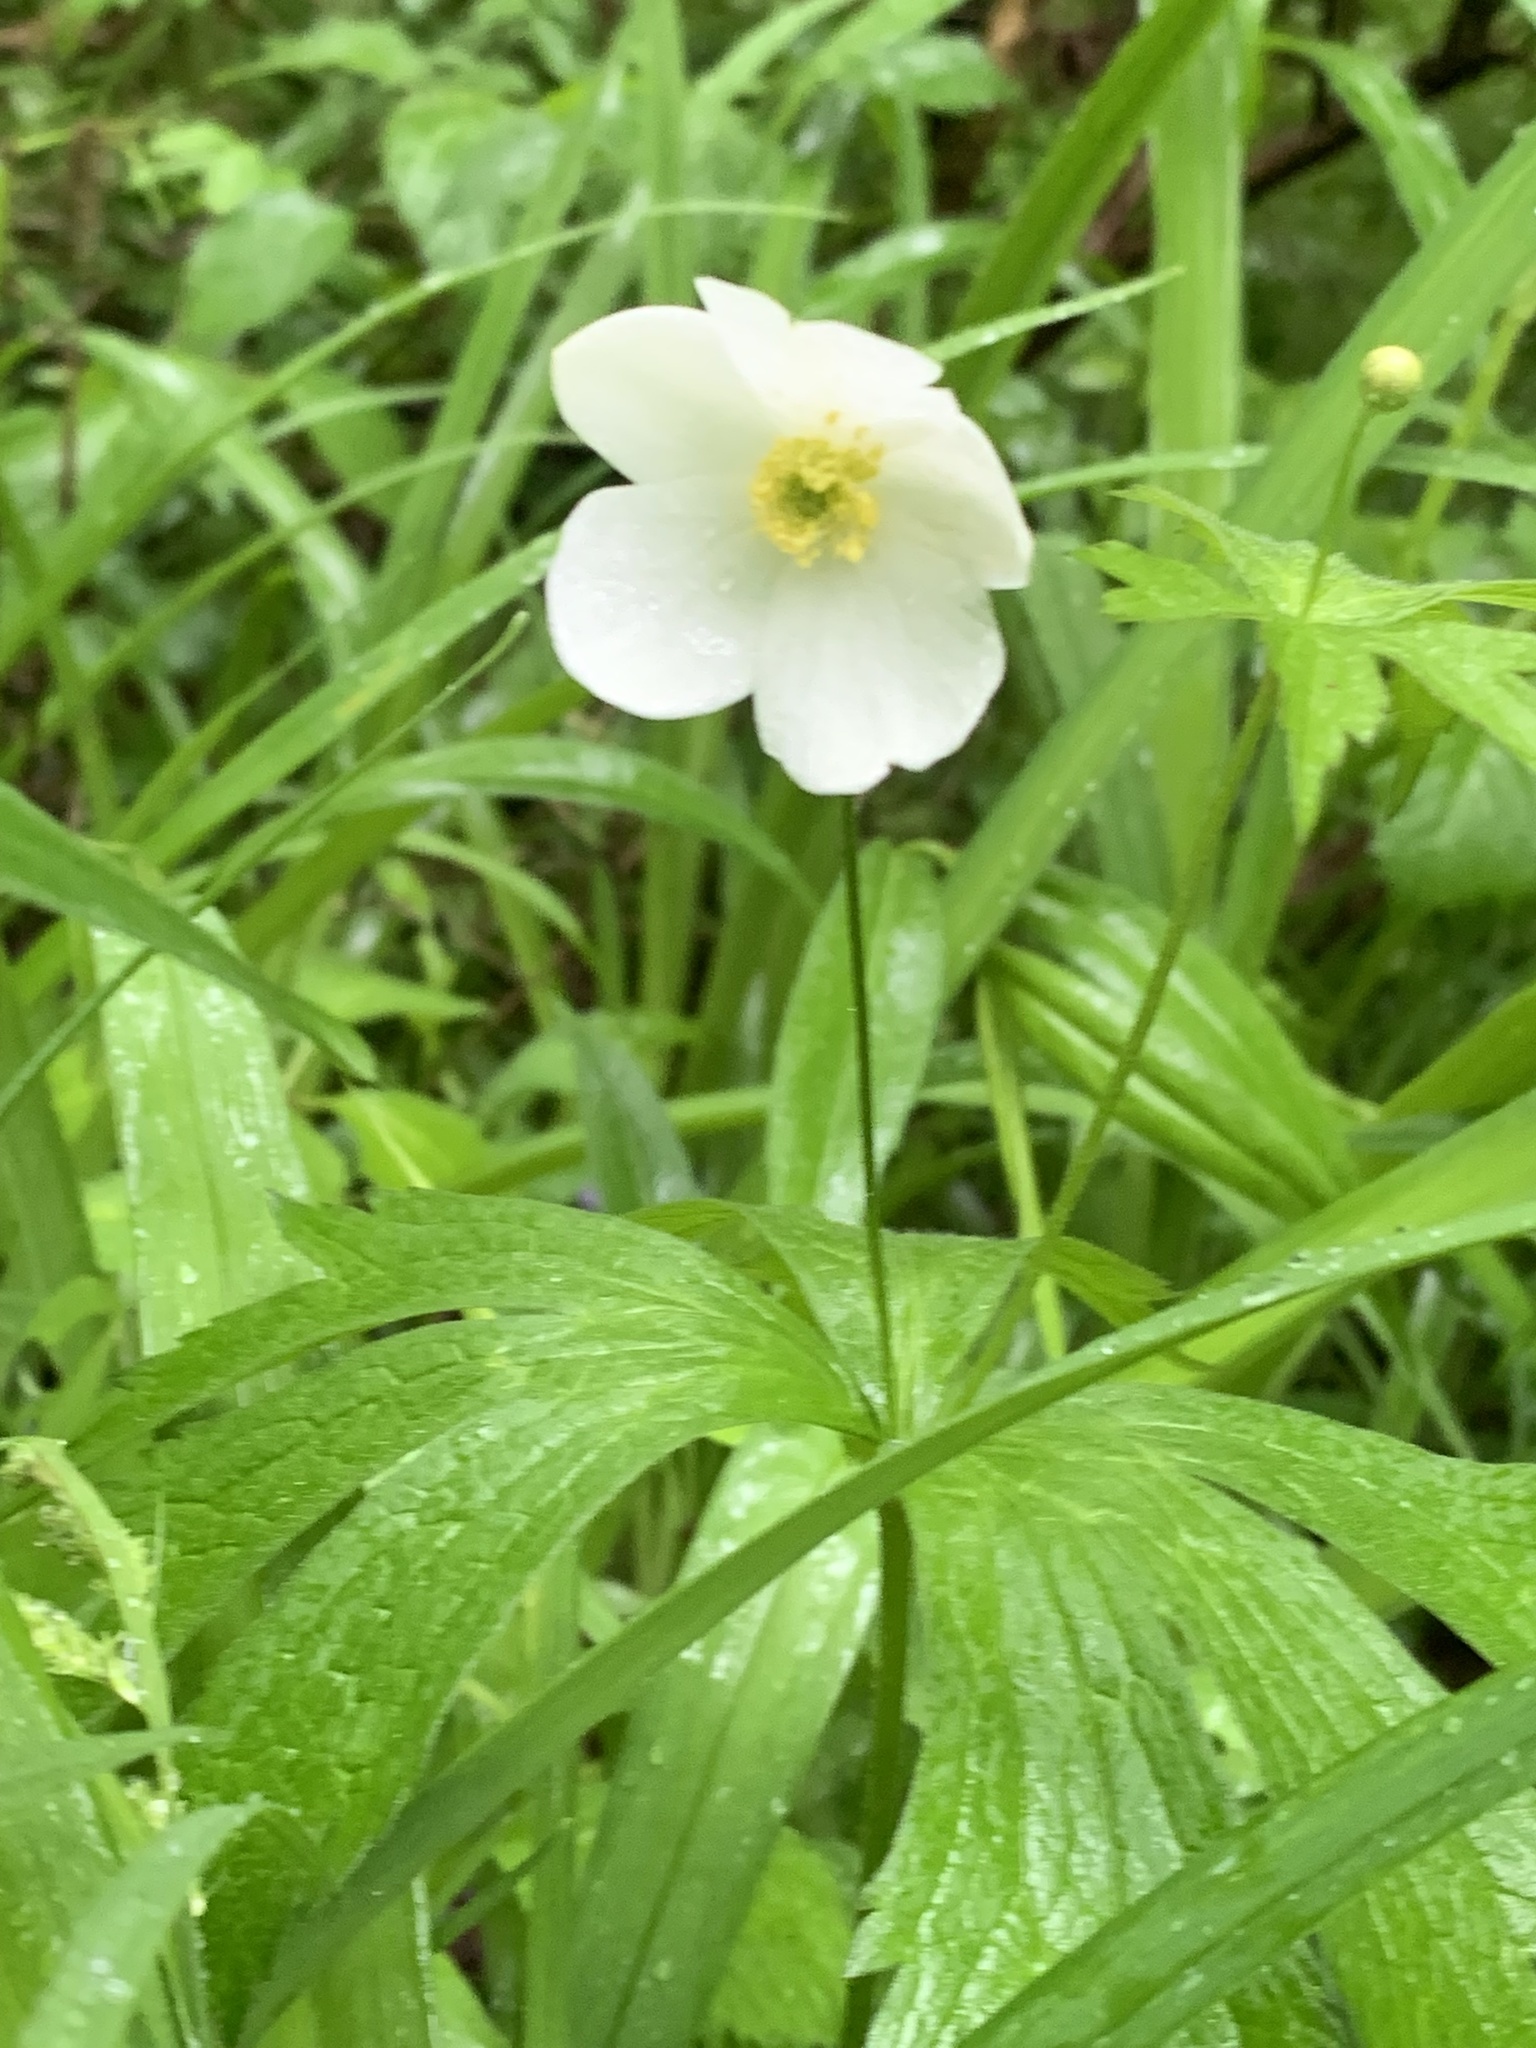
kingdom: Plantae
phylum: Tracheophyta
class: Magnoliopsida
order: Ranunculales
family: Ranunculaceae
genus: Anemonastrum
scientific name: Anemonastrum canadense
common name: Canada anemone
